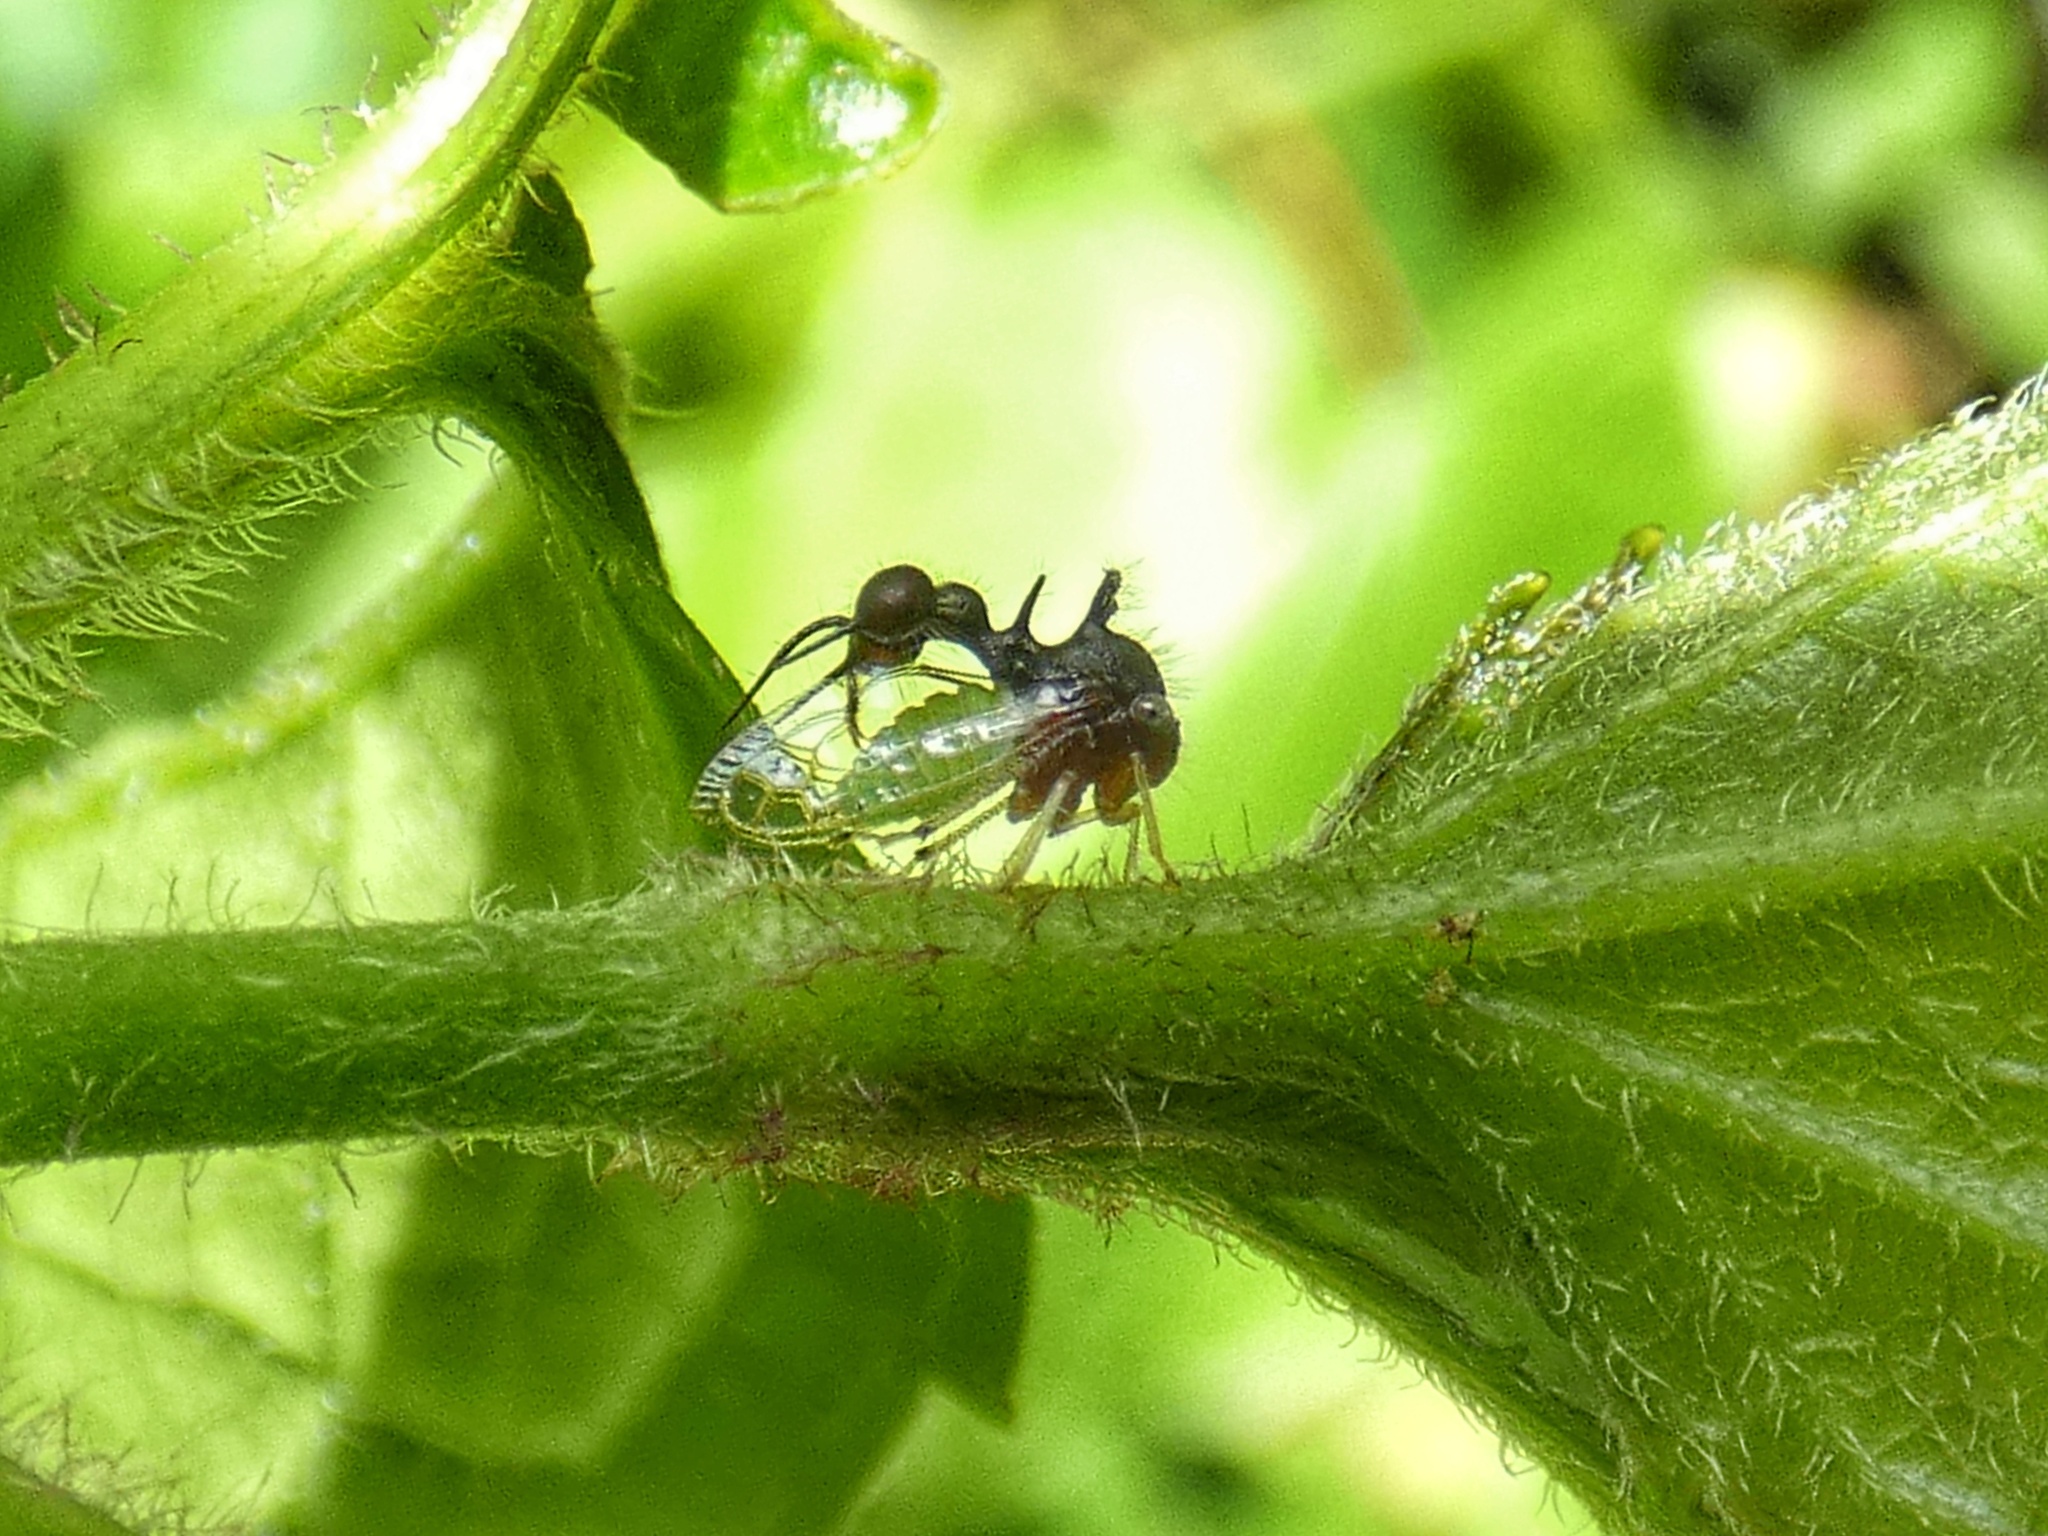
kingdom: Animalia
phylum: Arthropoda
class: Insecta
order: Hemiptera
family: Membracidae
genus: Cyphonia
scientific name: Cyphonia clavata
